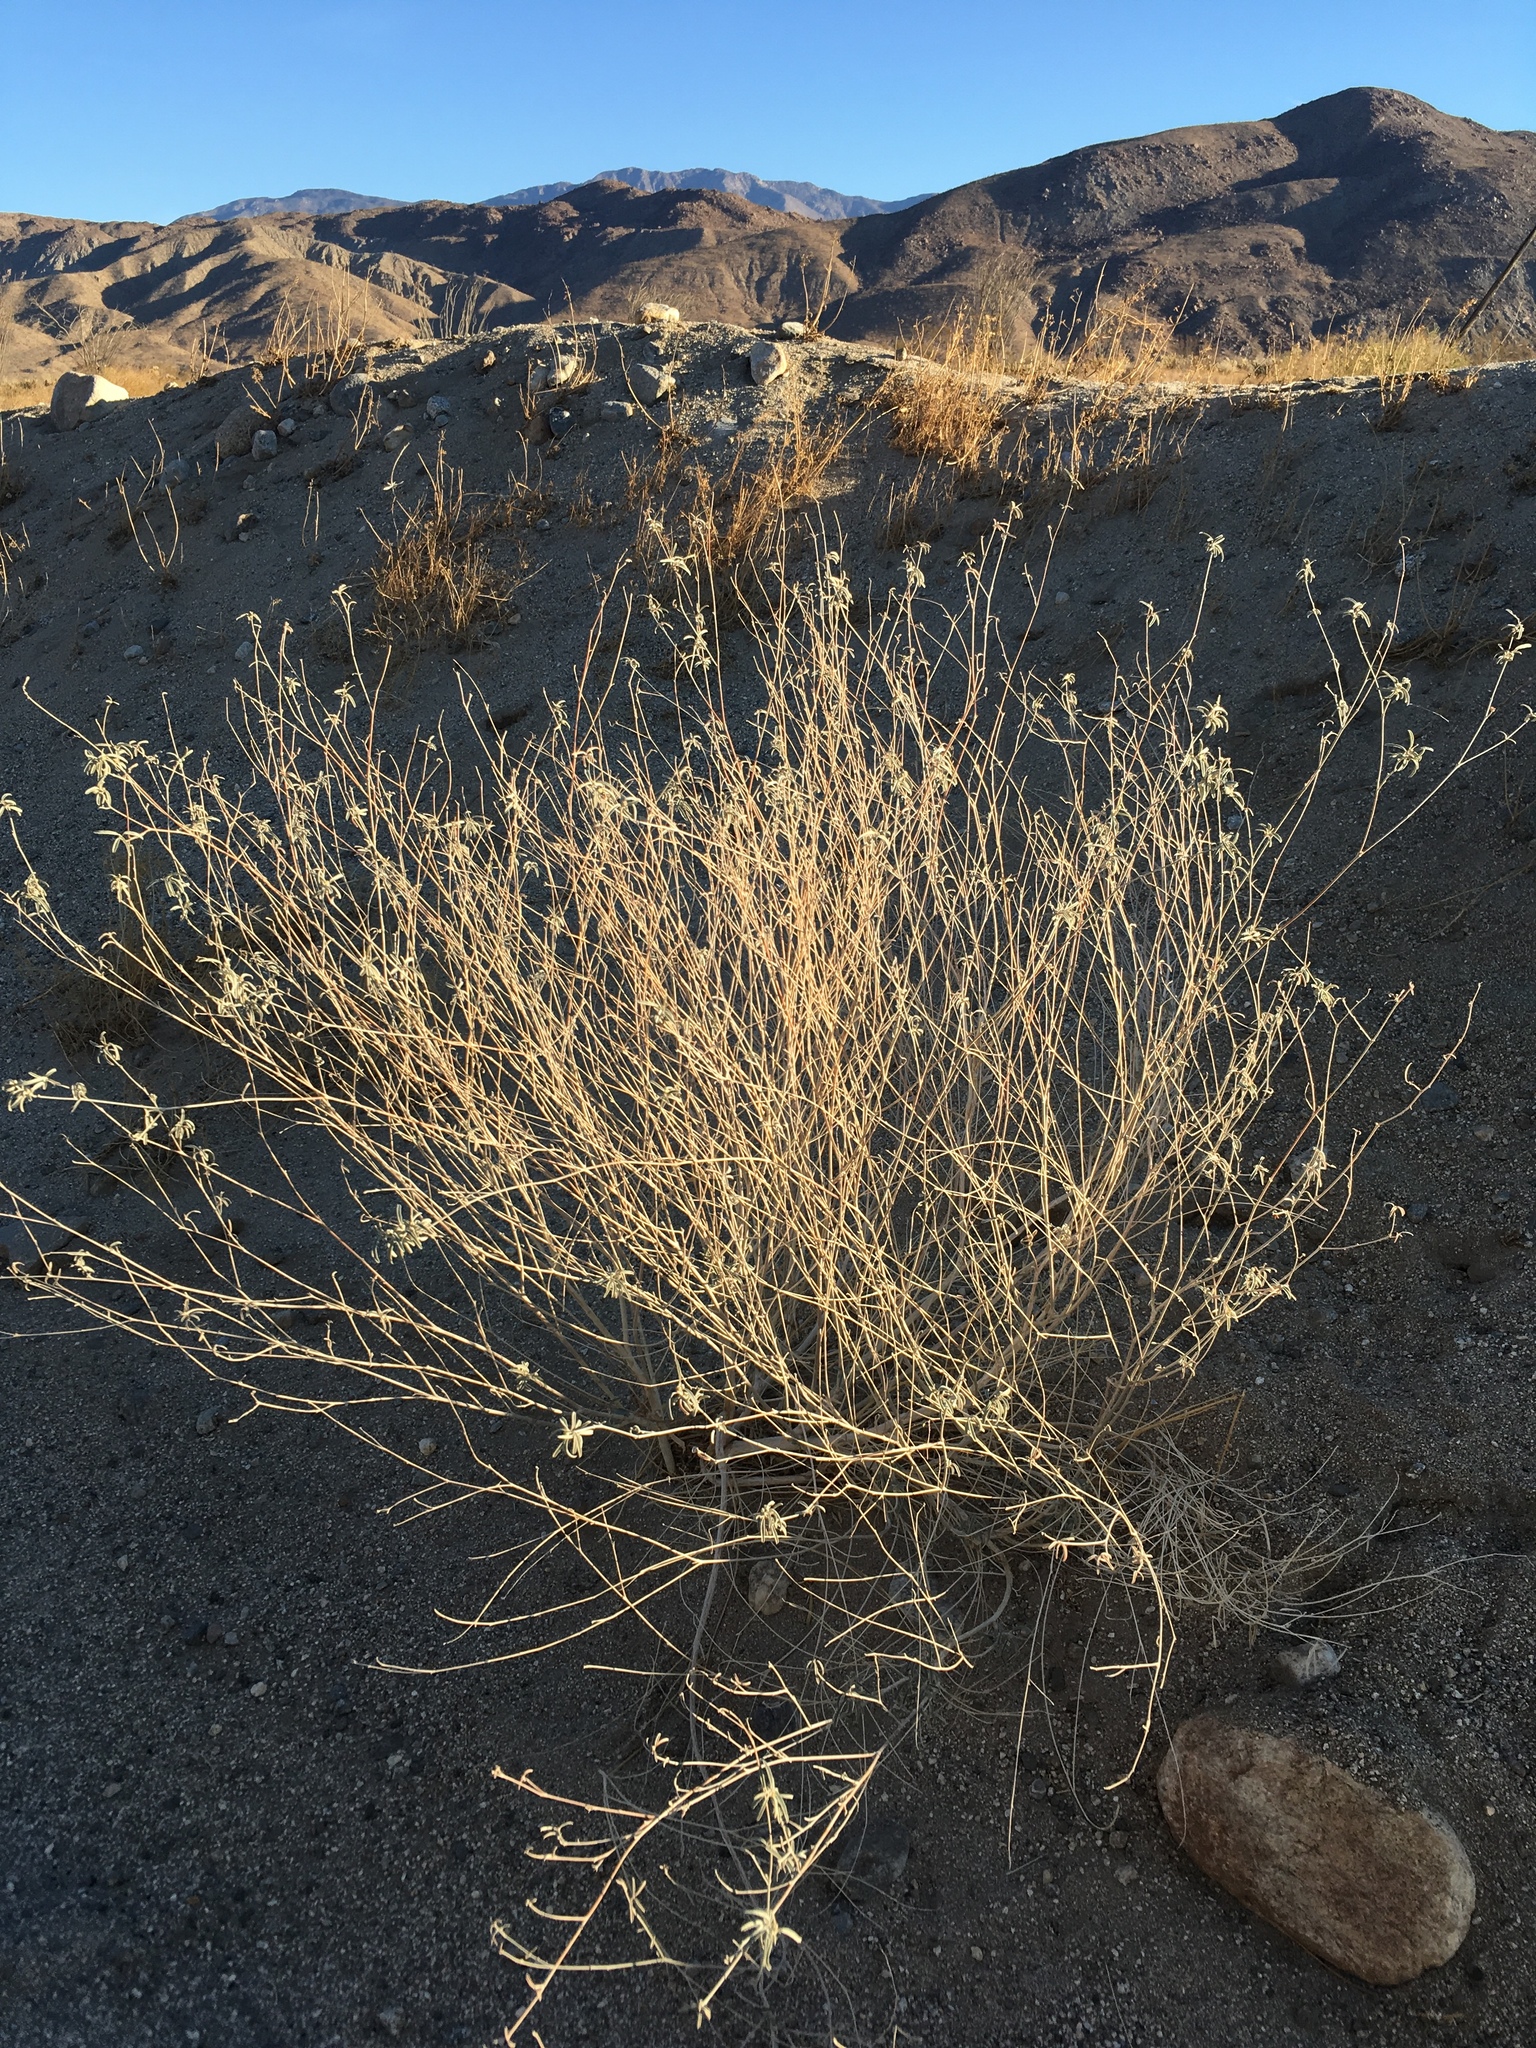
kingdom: Plantae
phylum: Tracheophyta
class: Magnoliopsida
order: Malpighiales
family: Euphorbiaceae
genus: Croton
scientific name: Croton californicus
